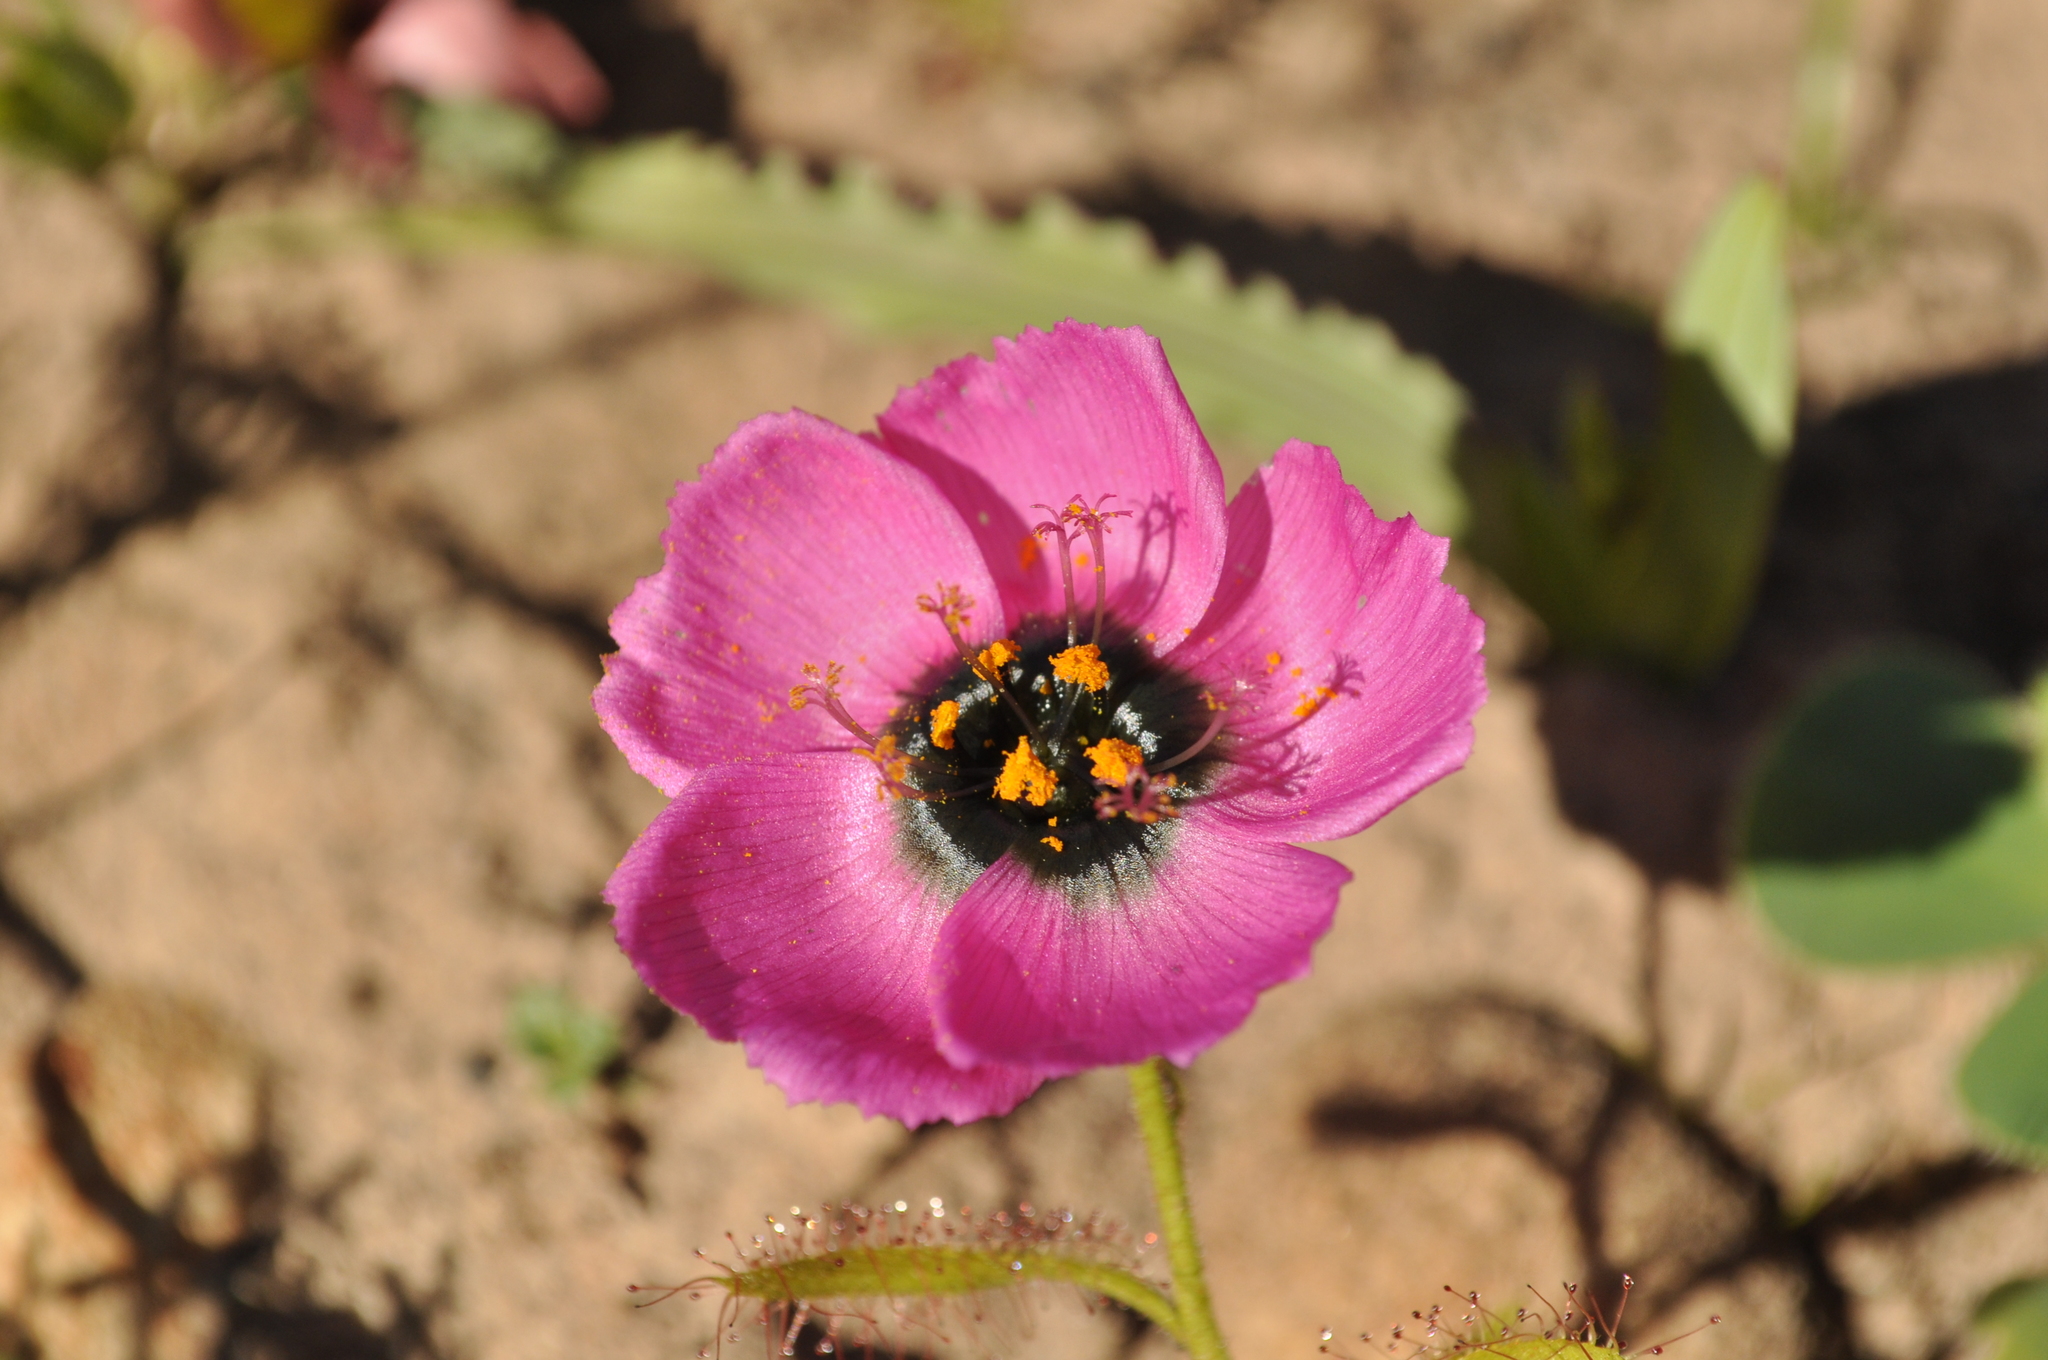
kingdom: Plantae
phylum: Tracheophyta
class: Magnoliopsida
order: Caryophyllales
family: Droseraceae
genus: Drosera
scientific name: Drosera cistiflora
